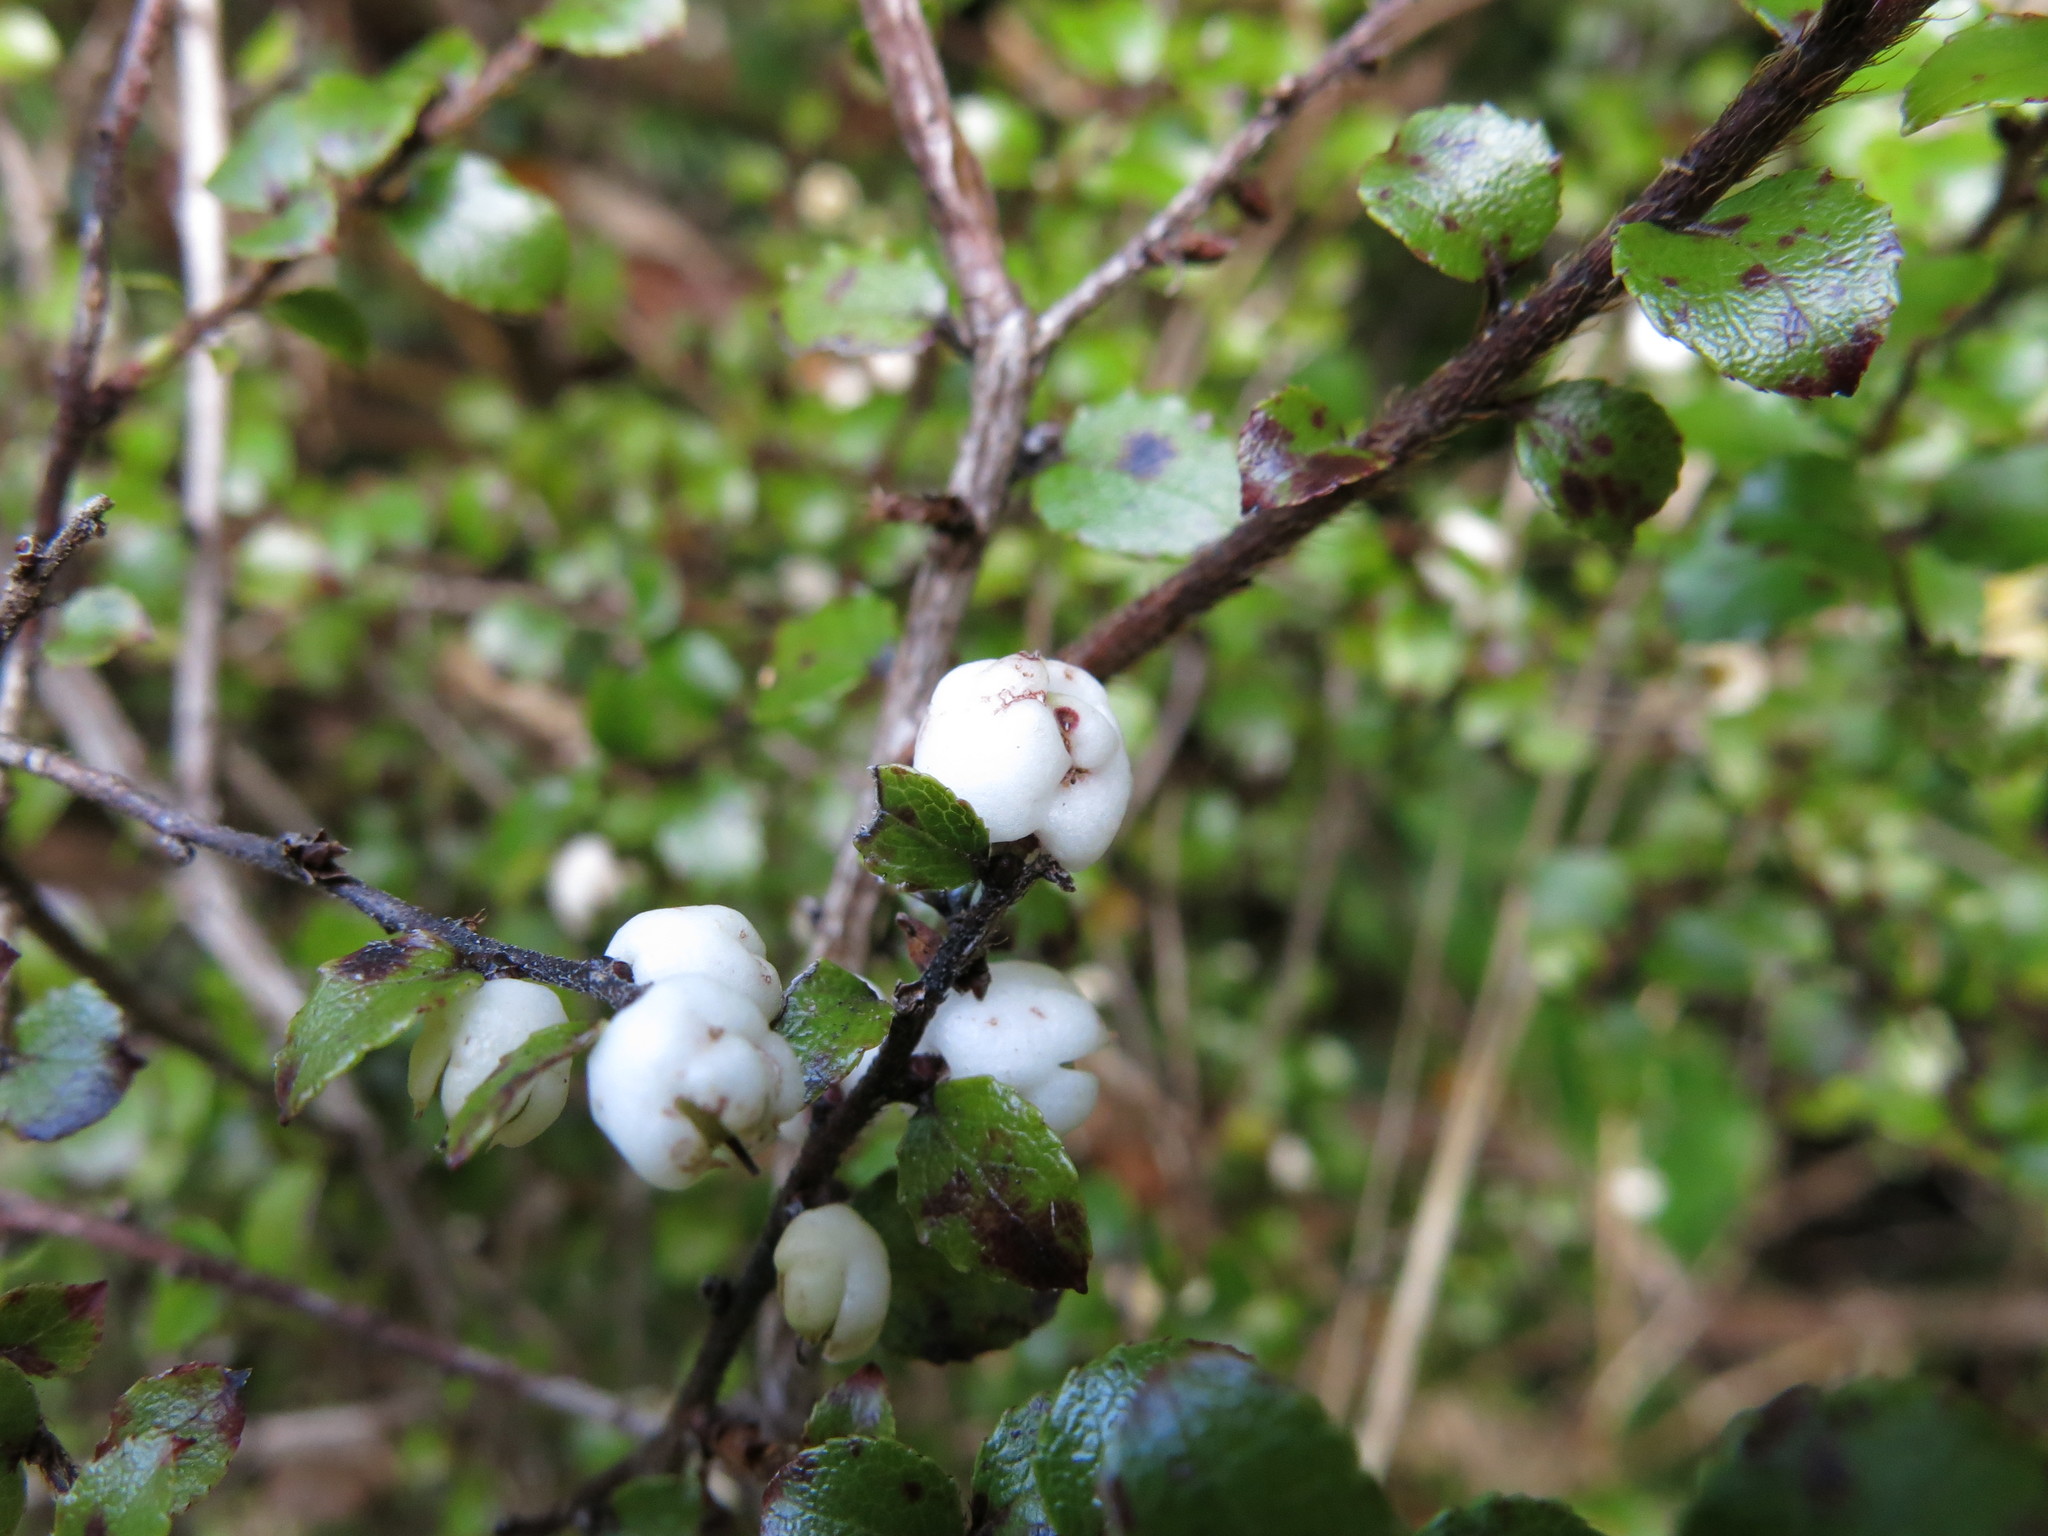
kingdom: Plantae
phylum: Tracheophyta
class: Magnoliopsida
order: Ericales
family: Ericaceae
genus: Gaultheria
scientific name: Gaultheria antipoda
